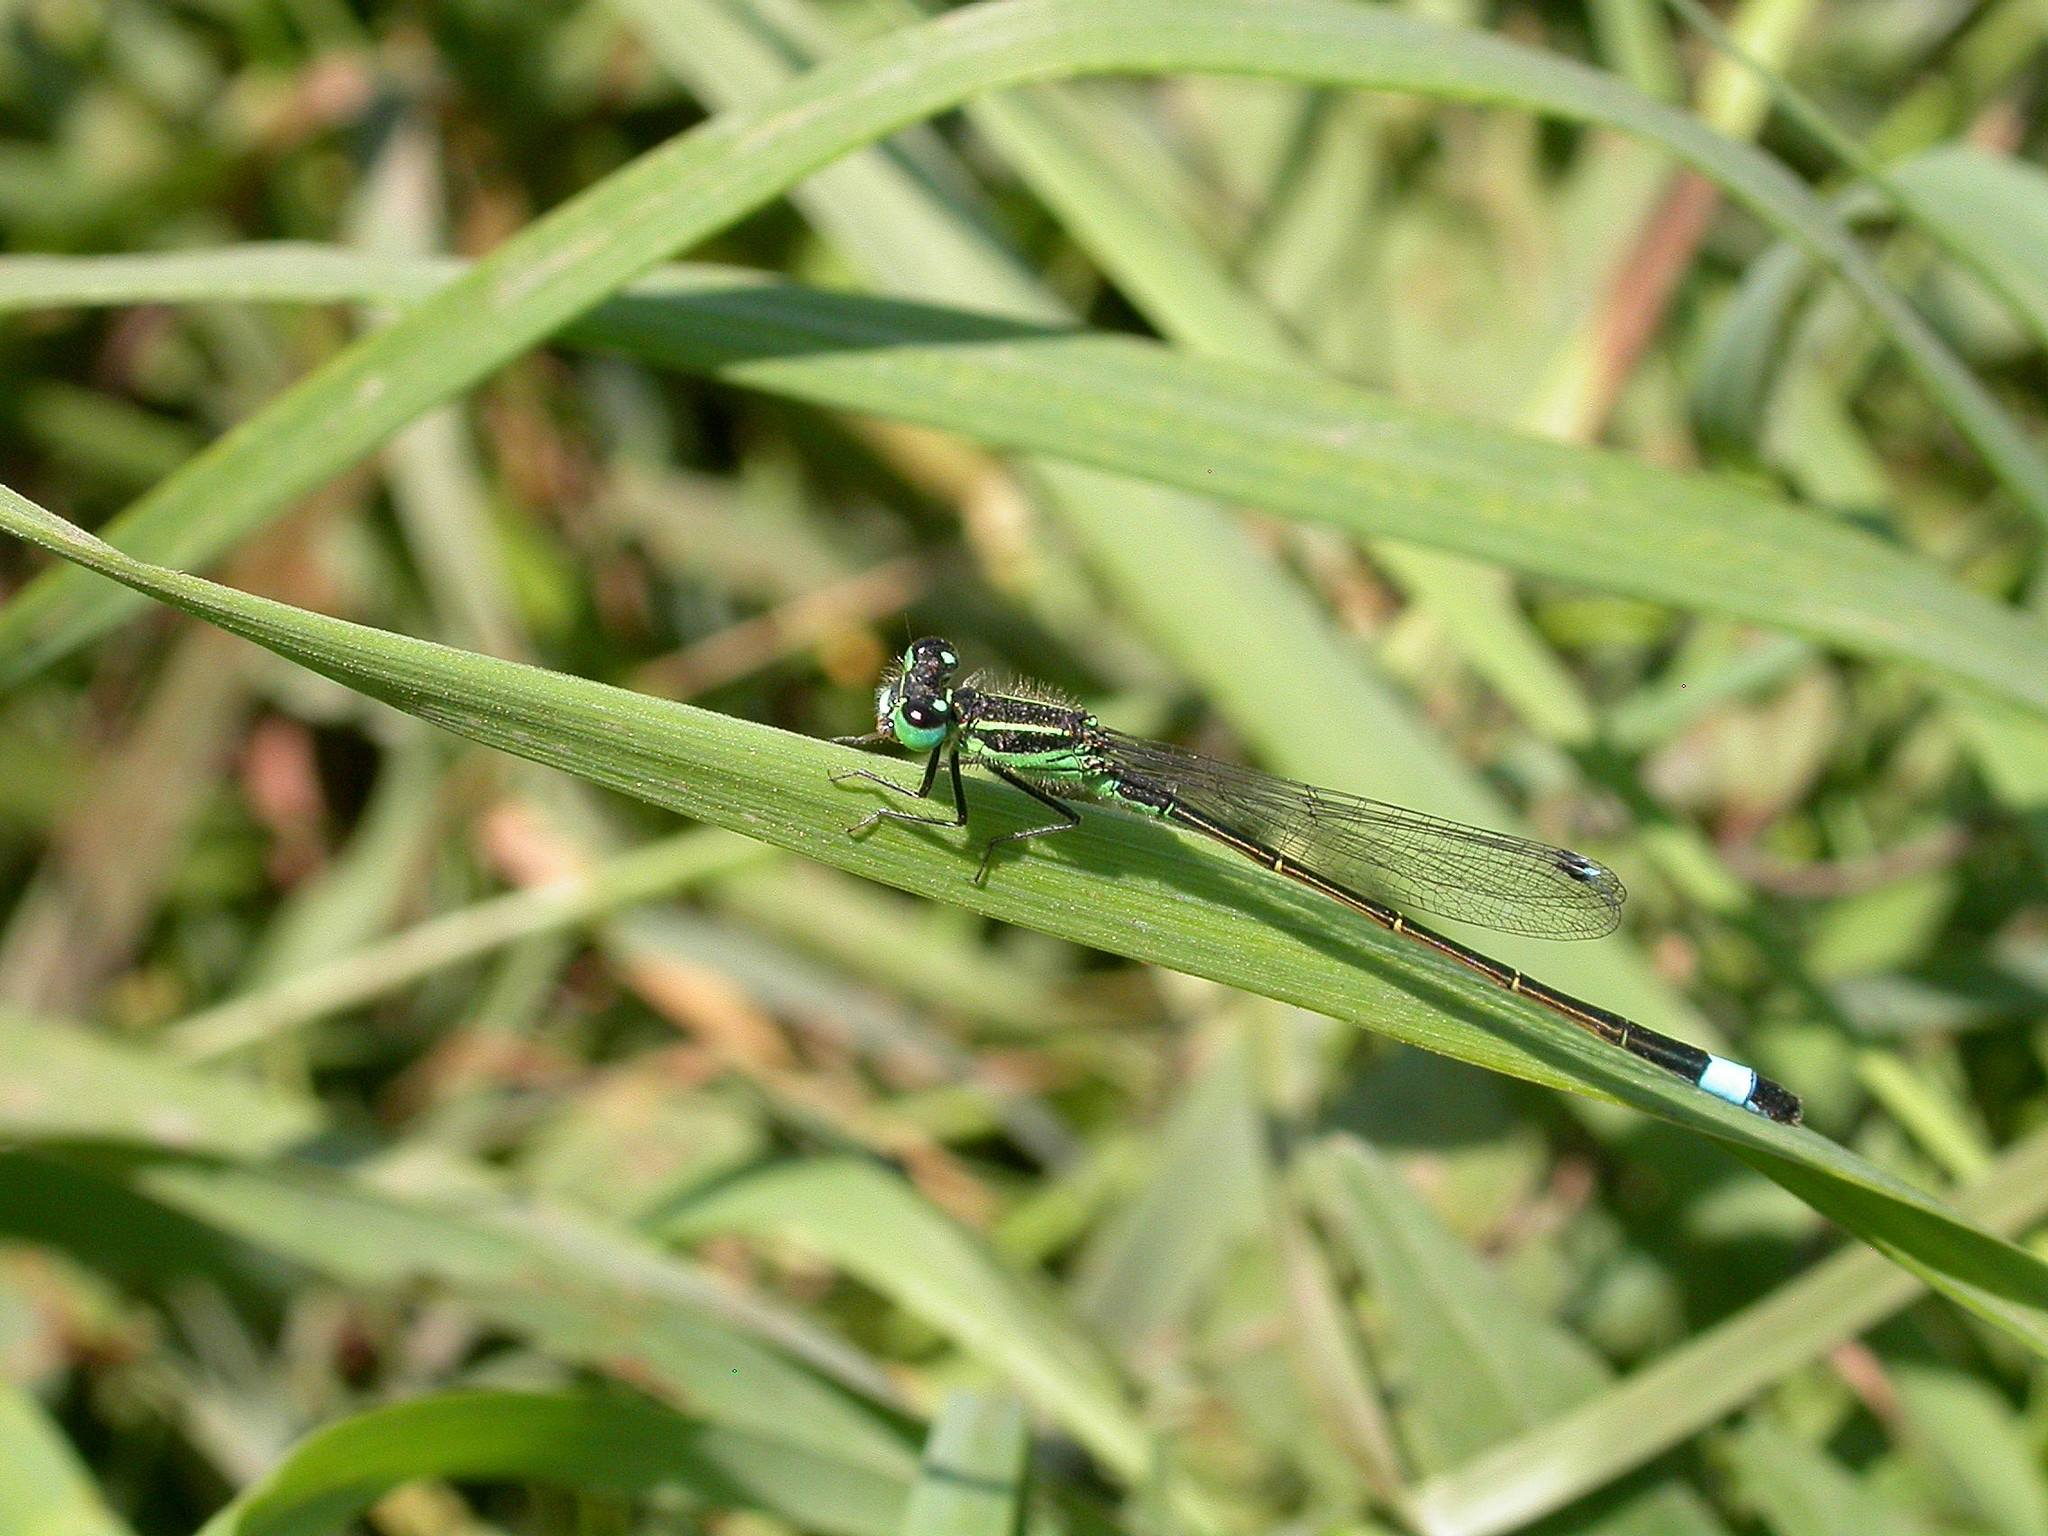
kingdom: Animalia
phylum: Arthropoda
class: Insecta
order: Odonata
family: Coenagrionidae
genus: Ischnura
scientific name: Ischnura genei
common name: Island bluetail
